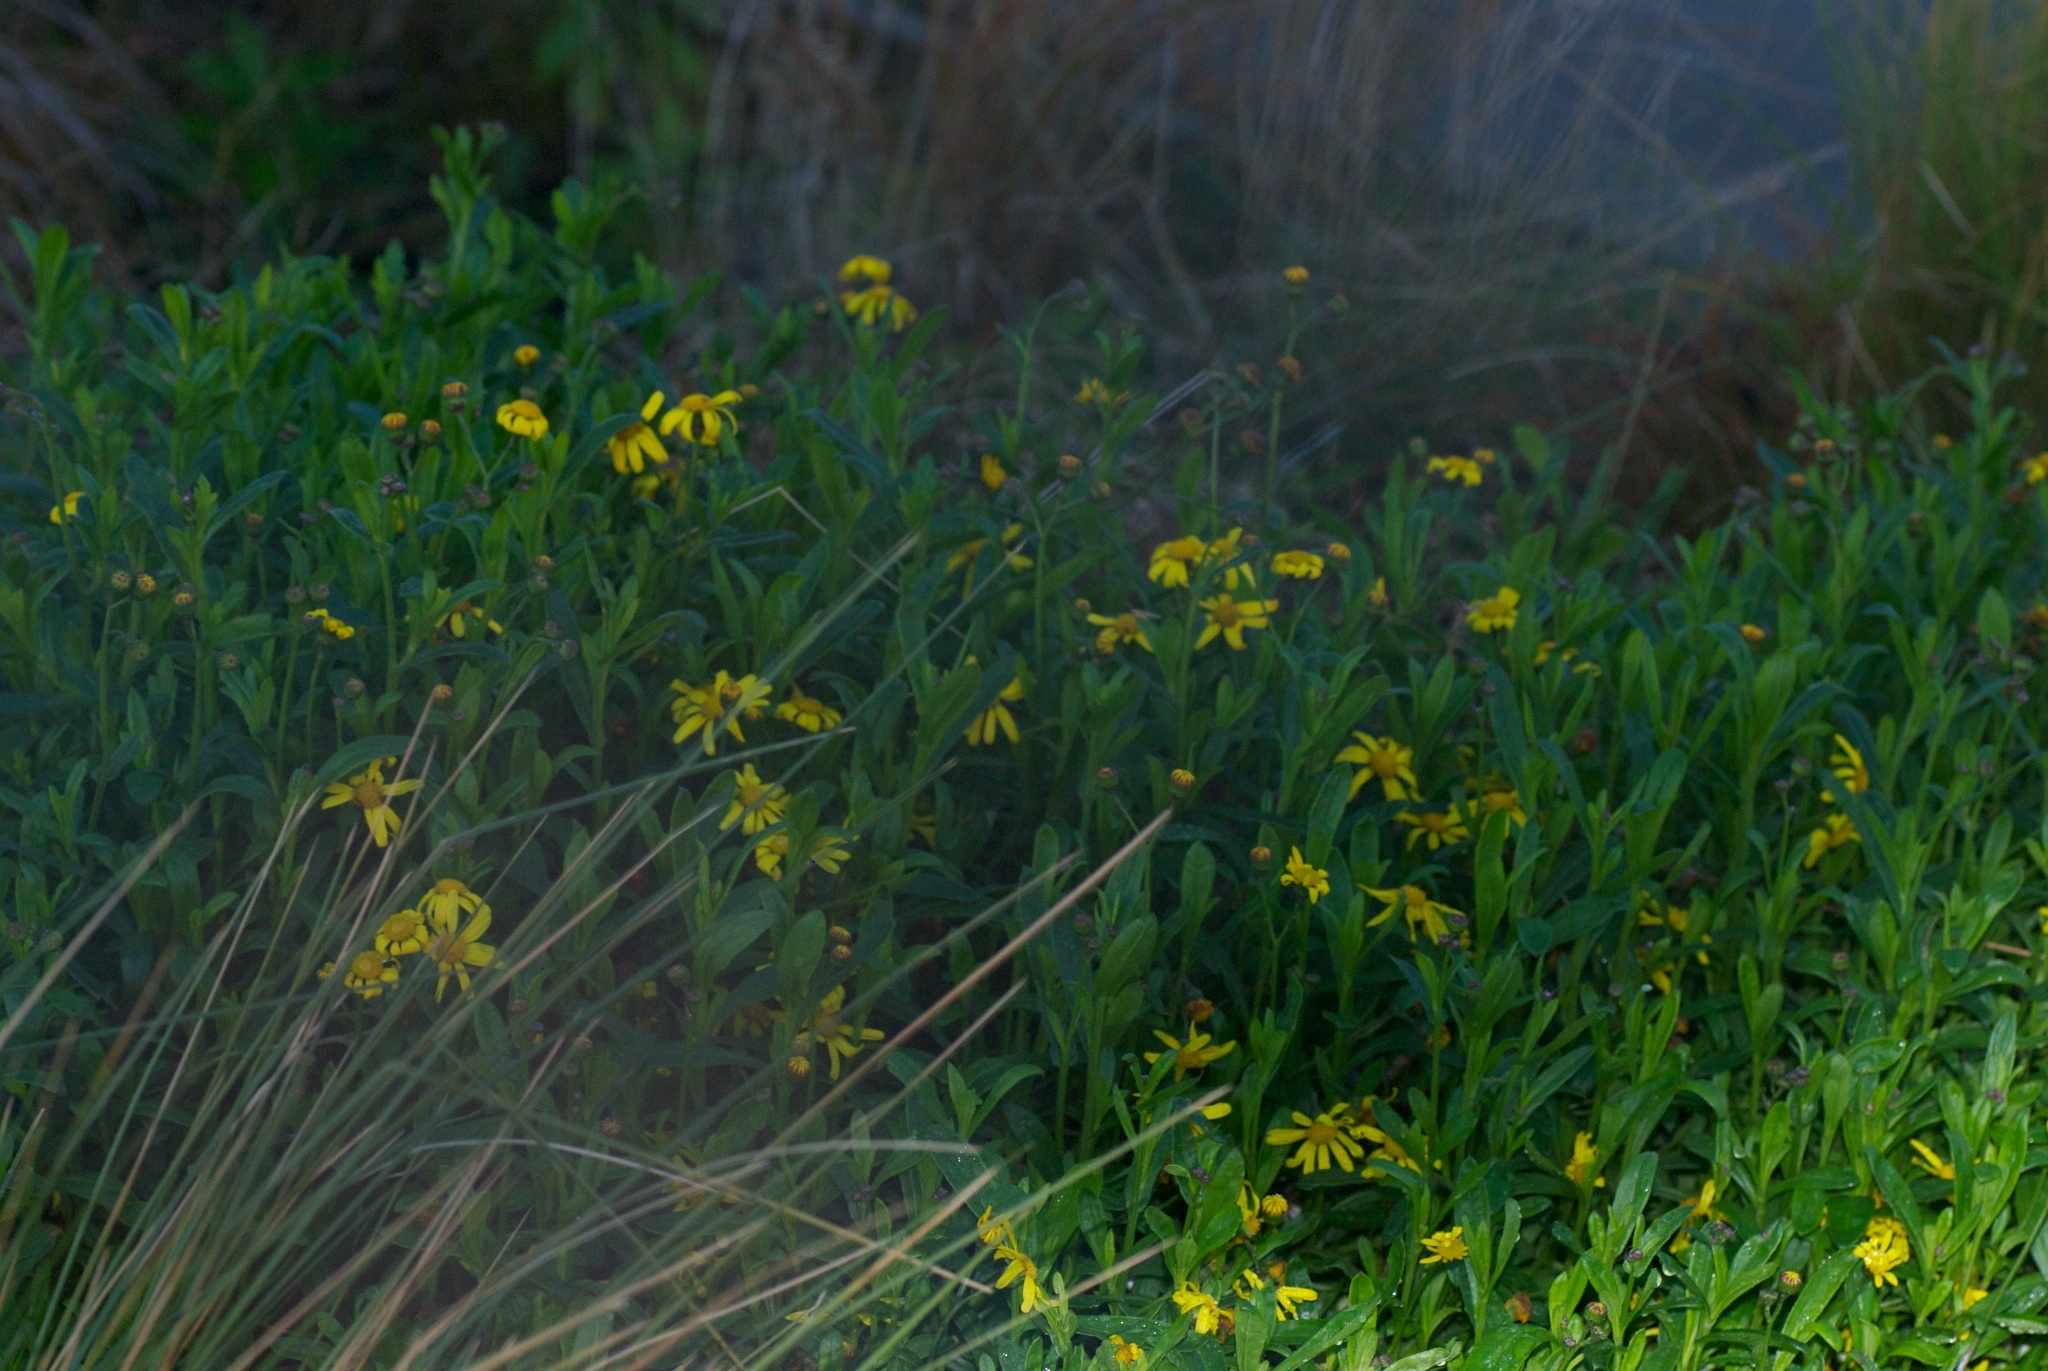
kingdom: Plantae
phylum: Tracheophyta
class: Magnoliopsida
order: Asterales
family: Asteraceae
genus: Senecio
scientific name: Senecio skirrhodon
